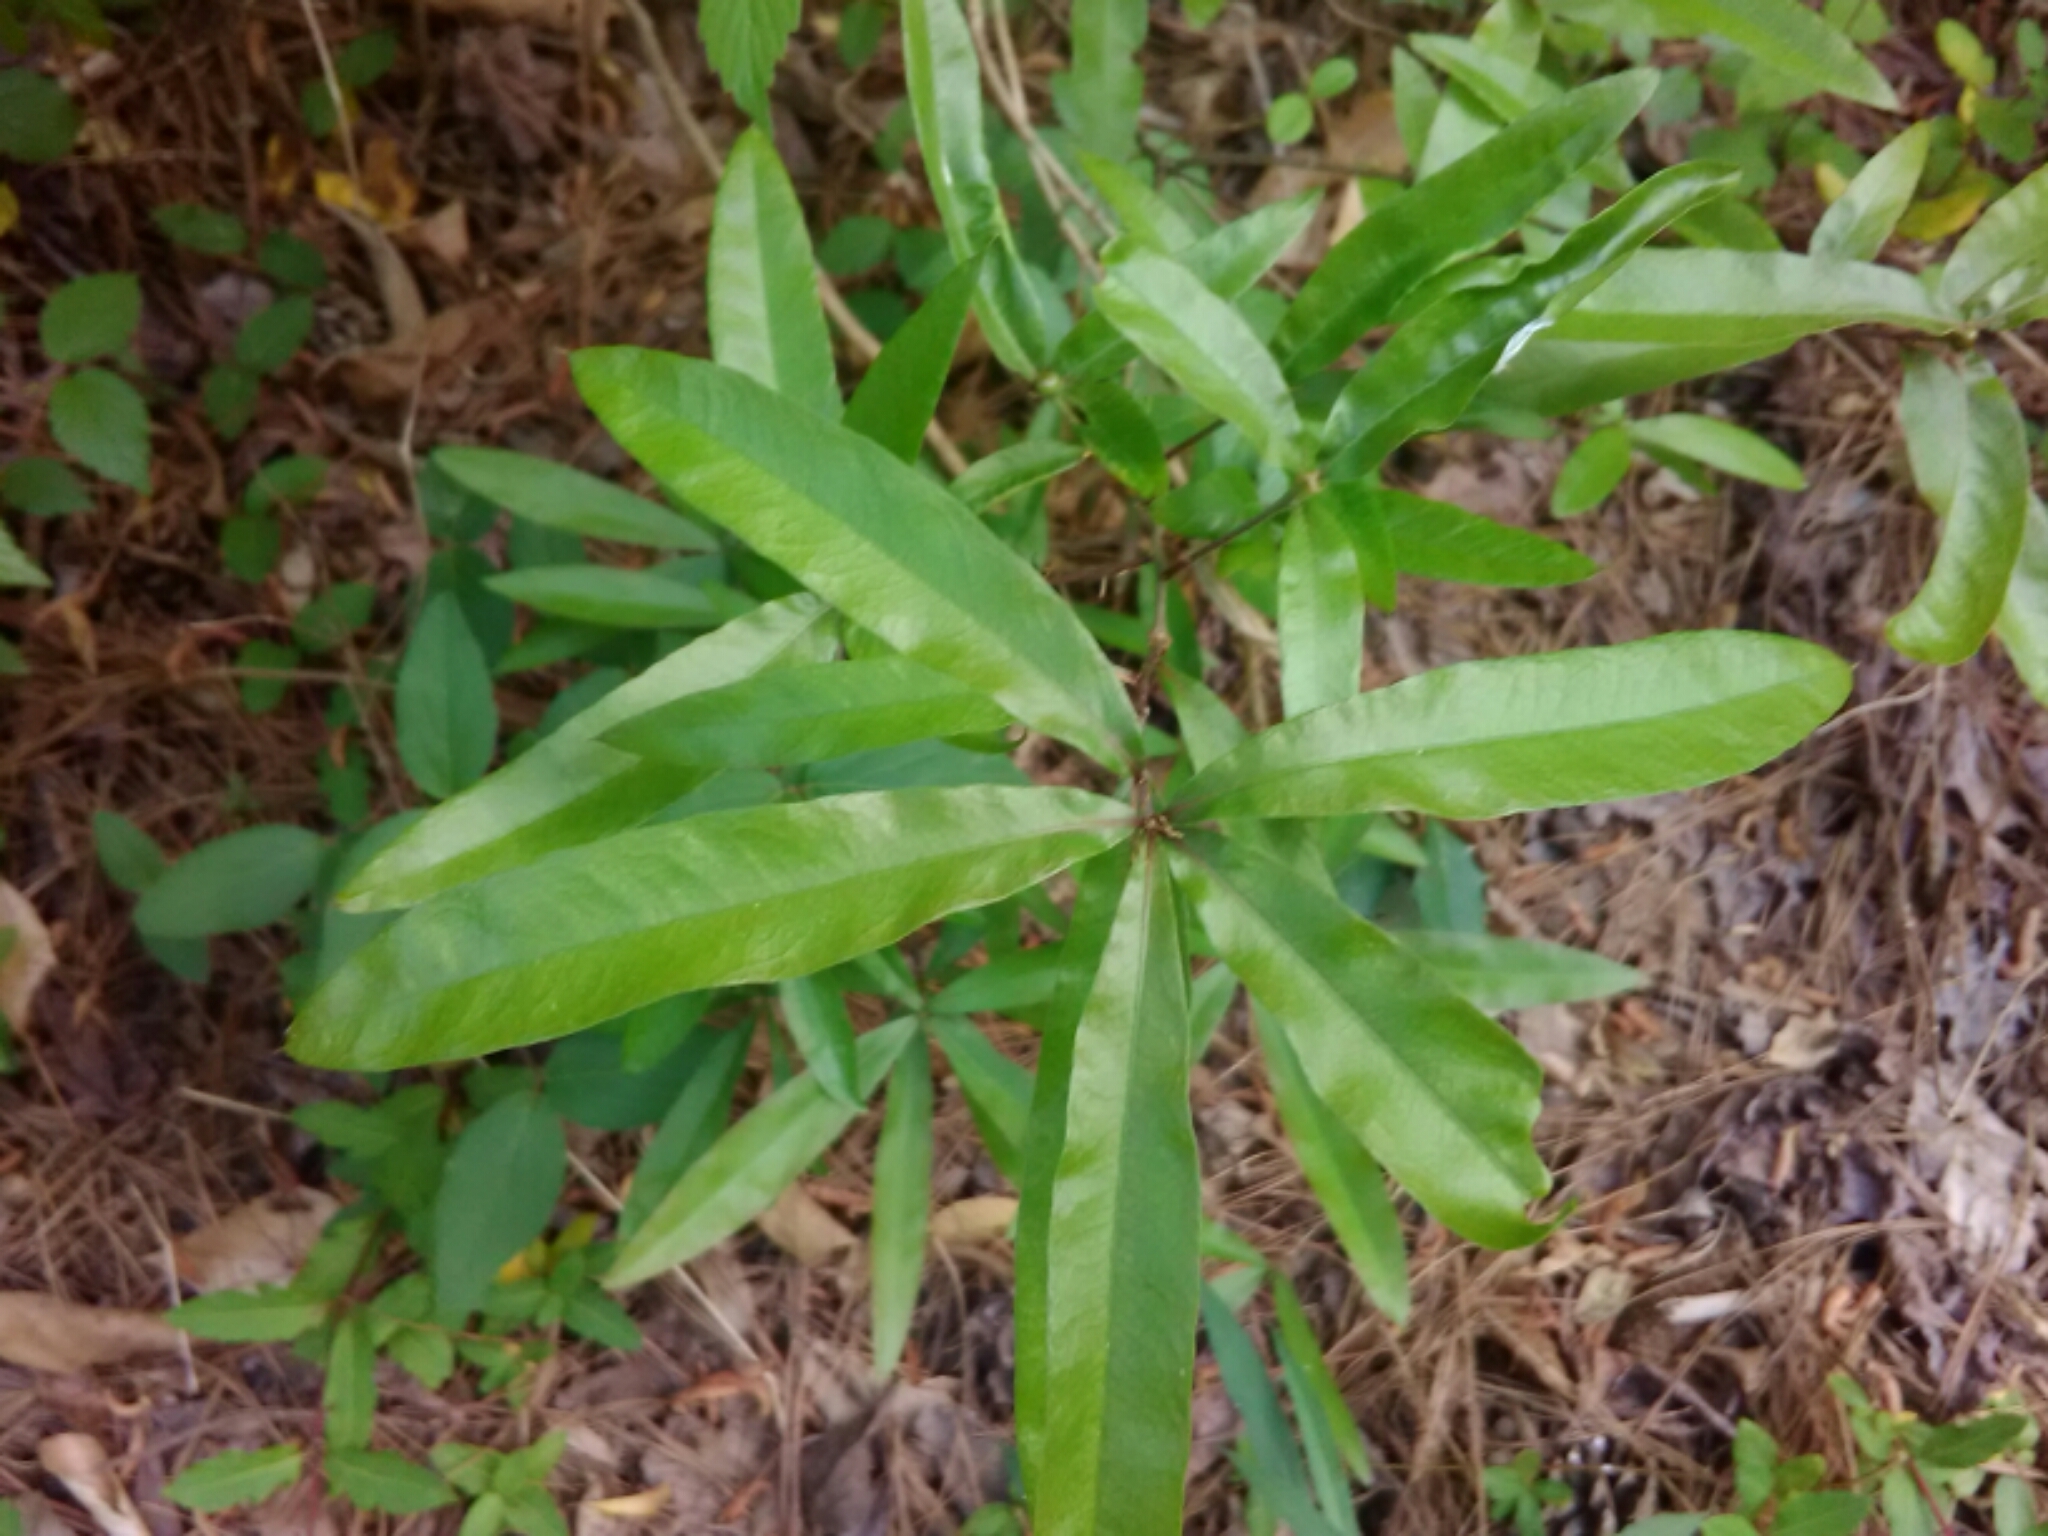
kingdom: Plantae
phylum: Tracheophyta
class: Magnoliopsida
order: Fagales
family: Fagaceae
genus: Quercus
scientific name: Quercus phellos
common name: Willow oak
